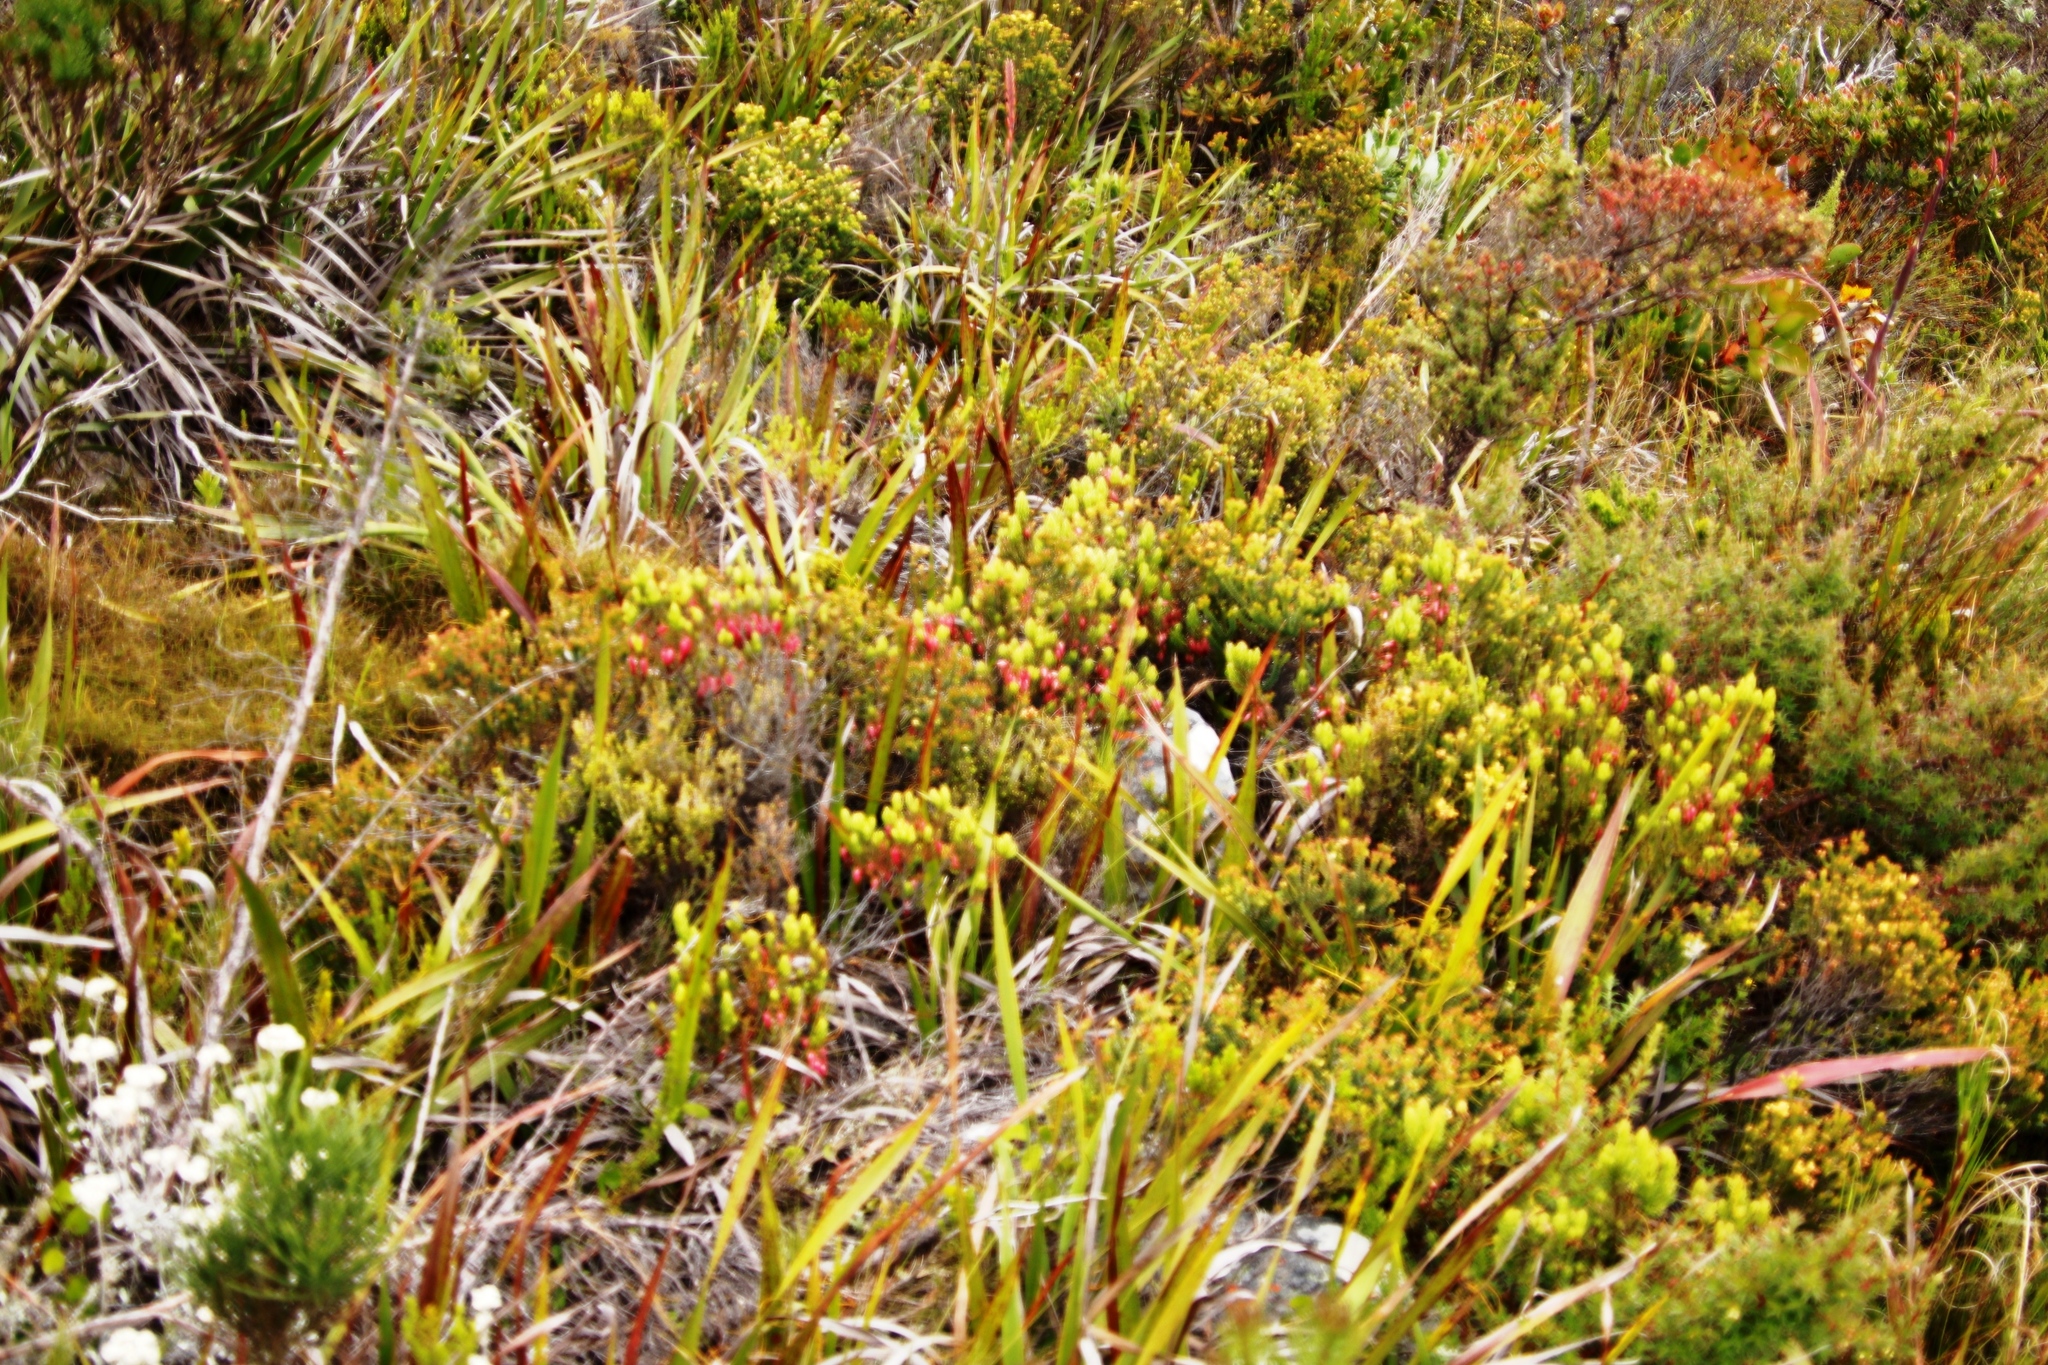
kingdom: Plantae
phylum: Tracheophyta
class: Magnoliopsida
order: Ericales
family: Ericaceae
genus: Erica
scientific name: Erica plukenetii
